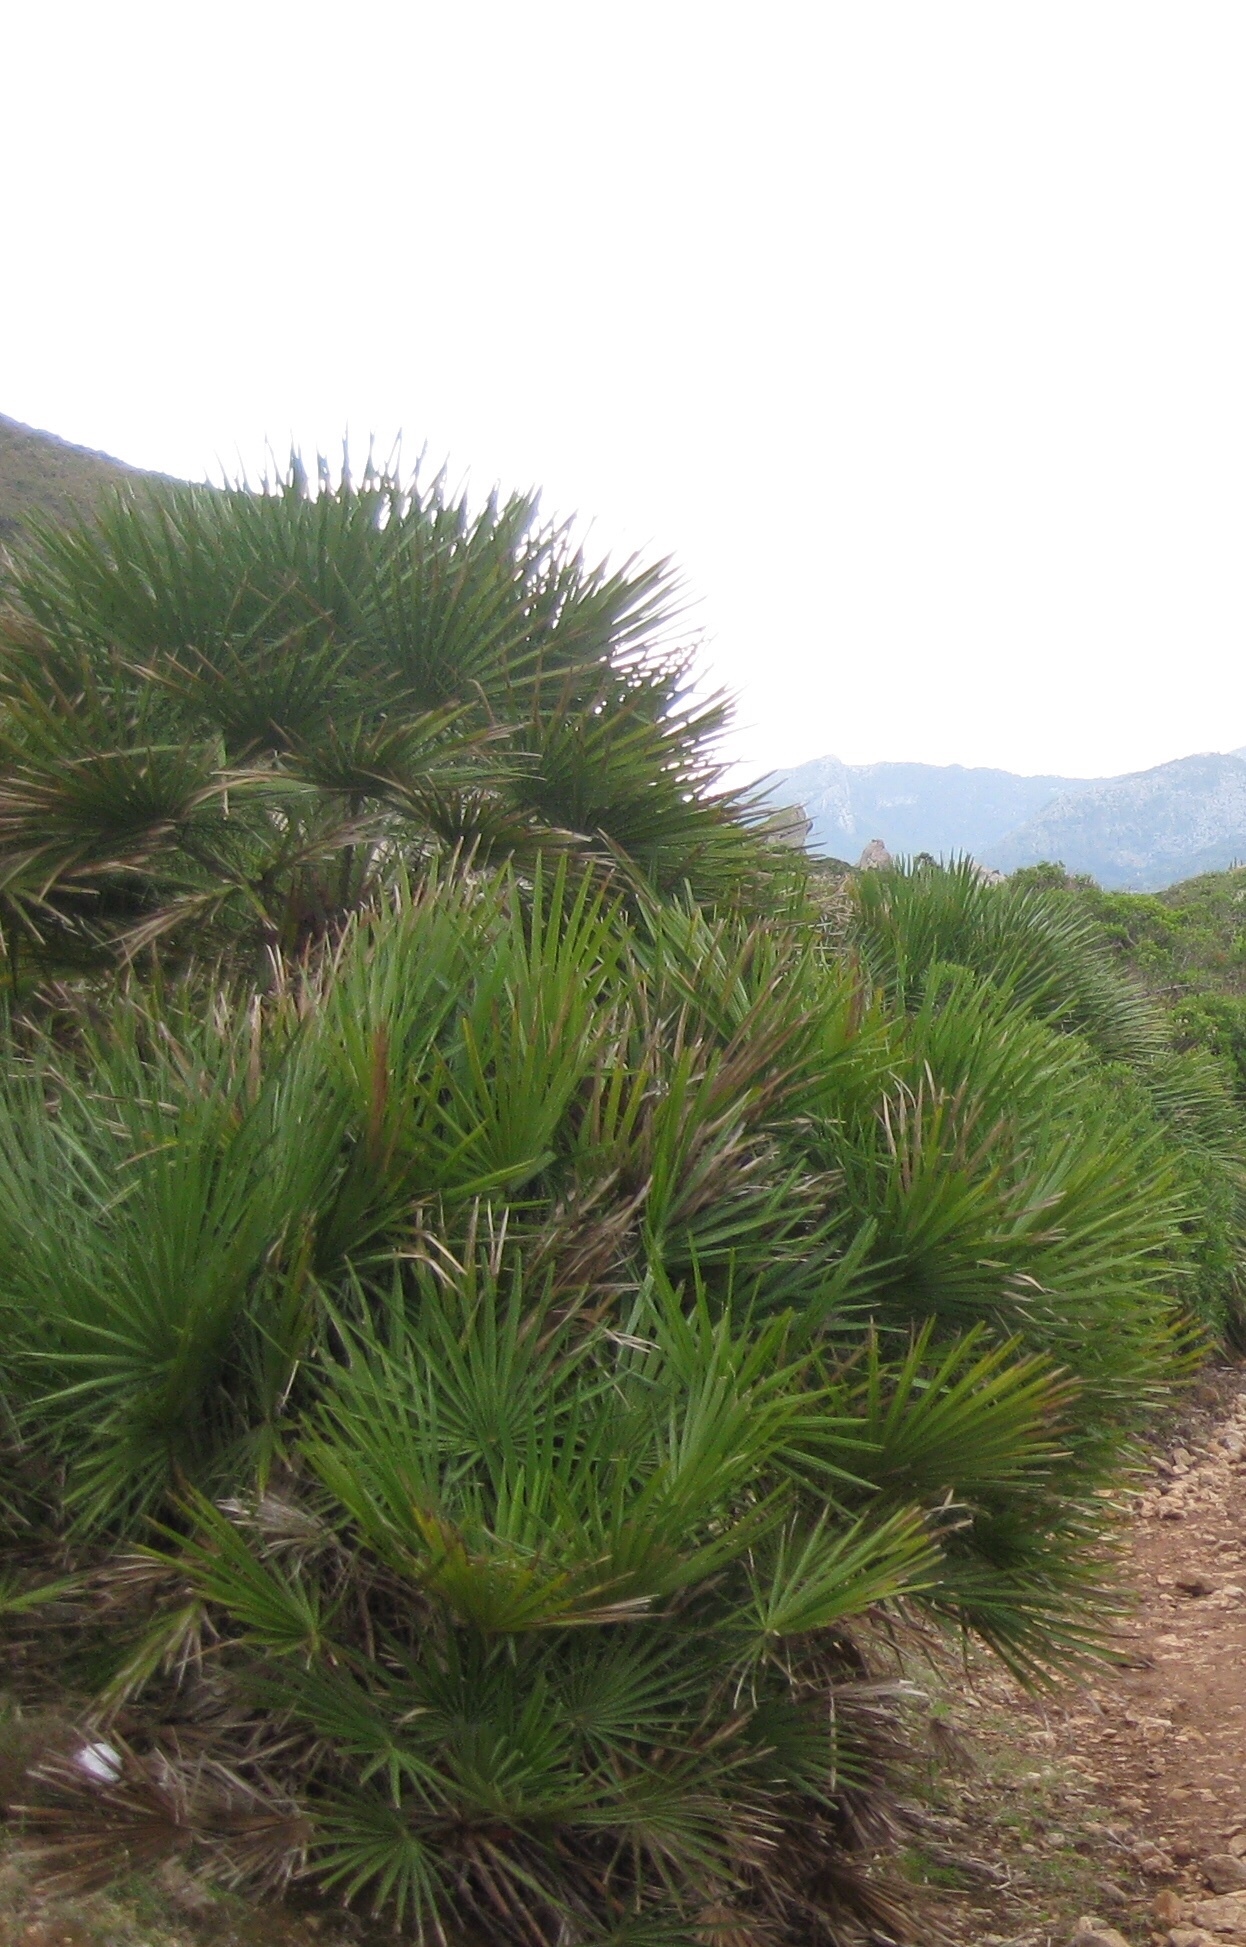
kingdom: Plantae
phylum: Tracheophyta
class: Liliopsida
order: Arecales
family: Arecaceae
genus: Chamaerops
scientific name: Chamaerops humilis
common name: Dwarf fan palm
